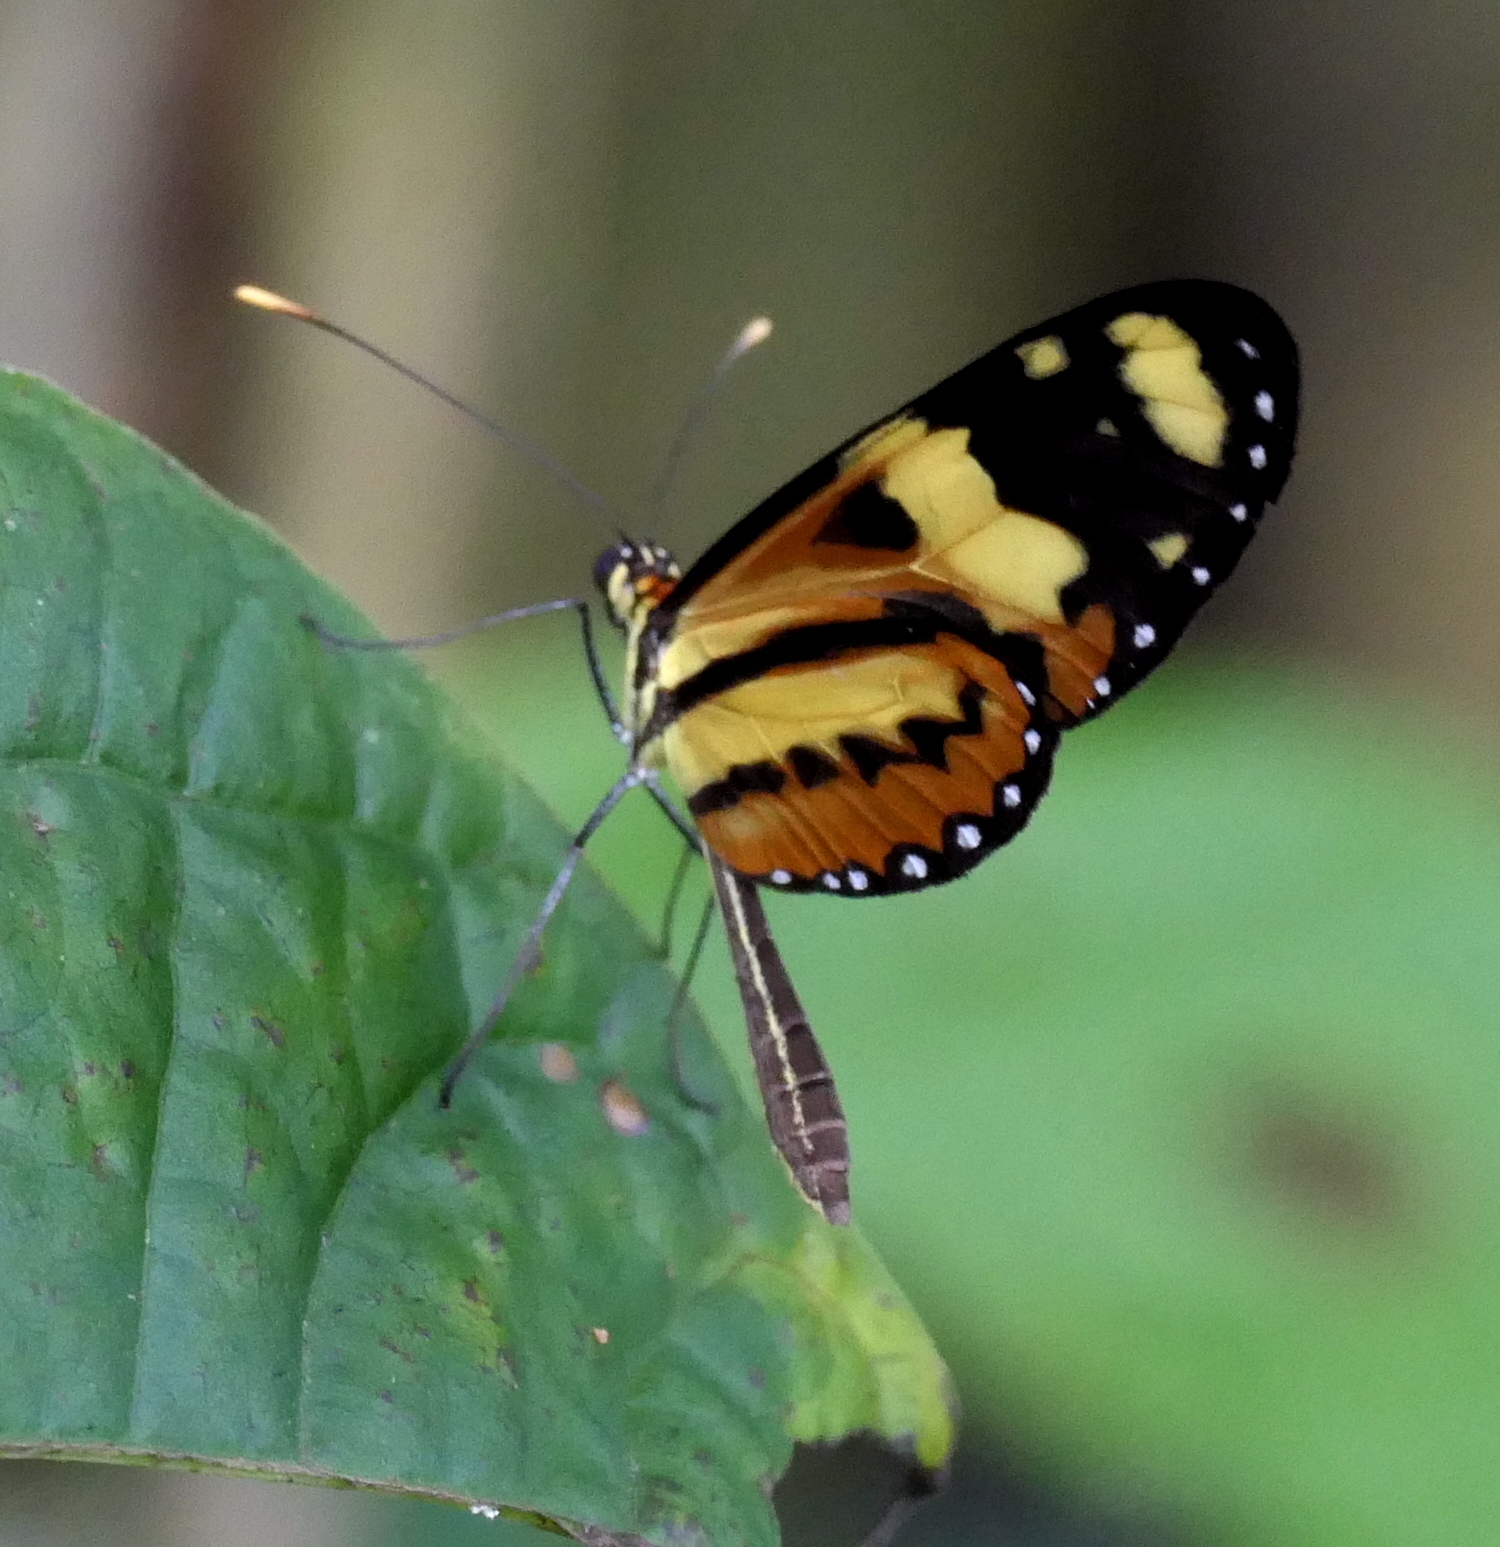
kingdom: Animalia
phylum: Arthropoda
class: Insecta
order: Lepidoptera
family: Nymphalidae
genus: Mechanitis
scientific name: Mechanitis lysimnia
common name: Lysimnia tigerwing
